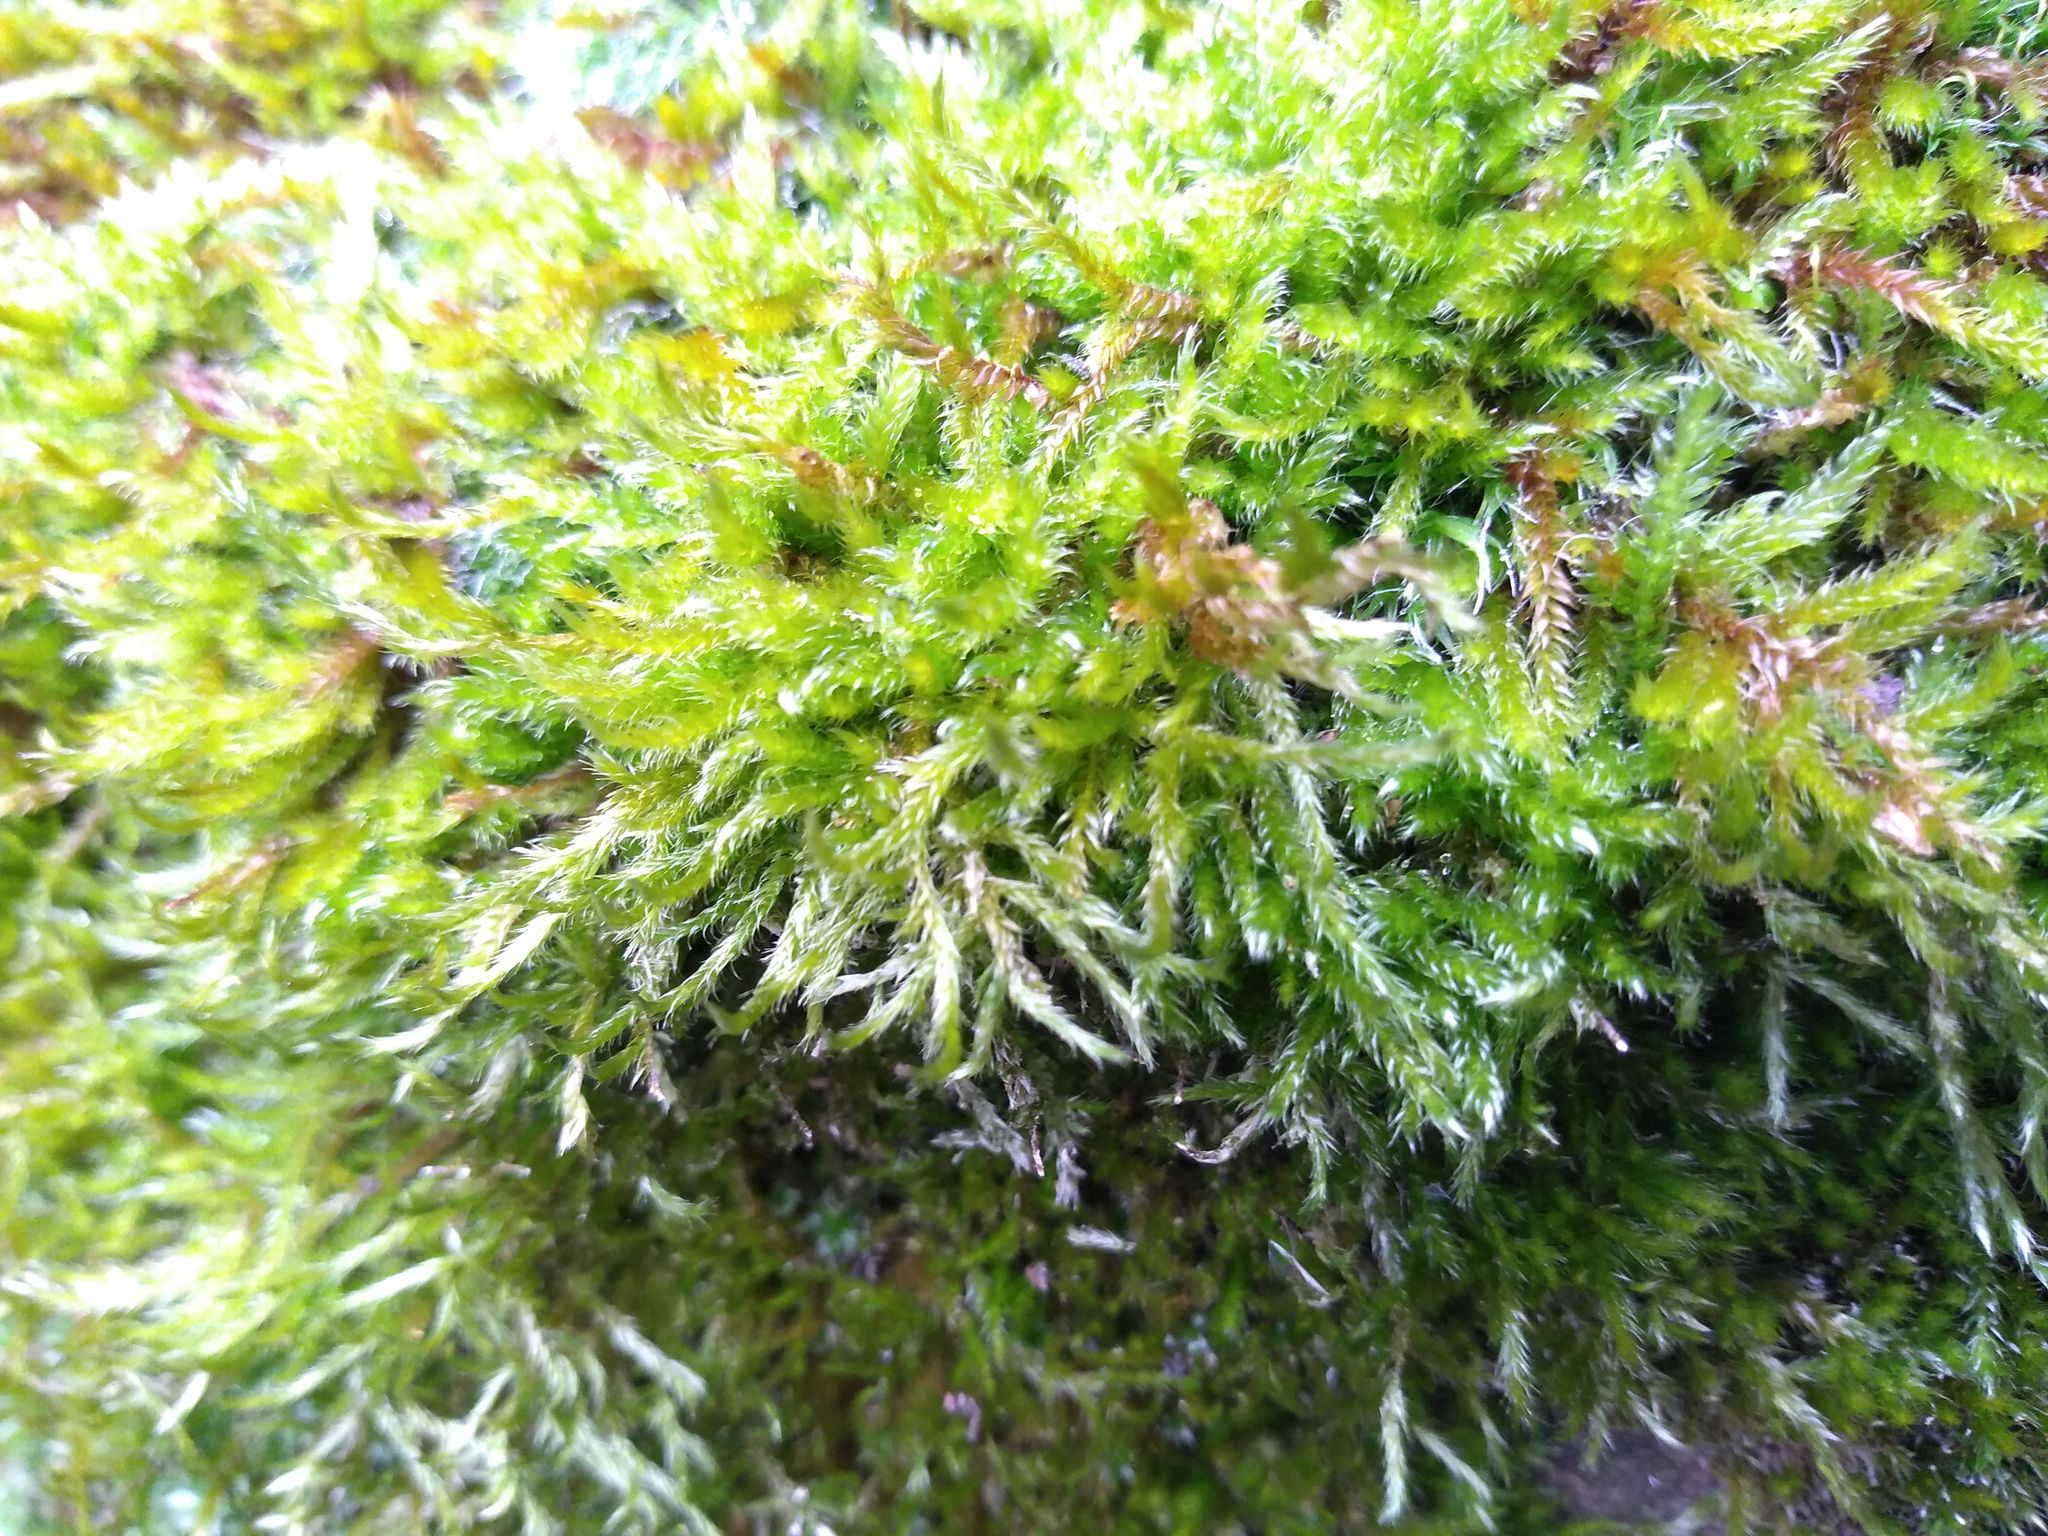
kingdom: Plantae
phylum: Bryophyta
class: Bryopsida
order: Hypnales
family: Hypnaceae
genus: Hypnum
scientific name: Hypnum cupressiforme
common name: Cypress-leaved plait-moss
